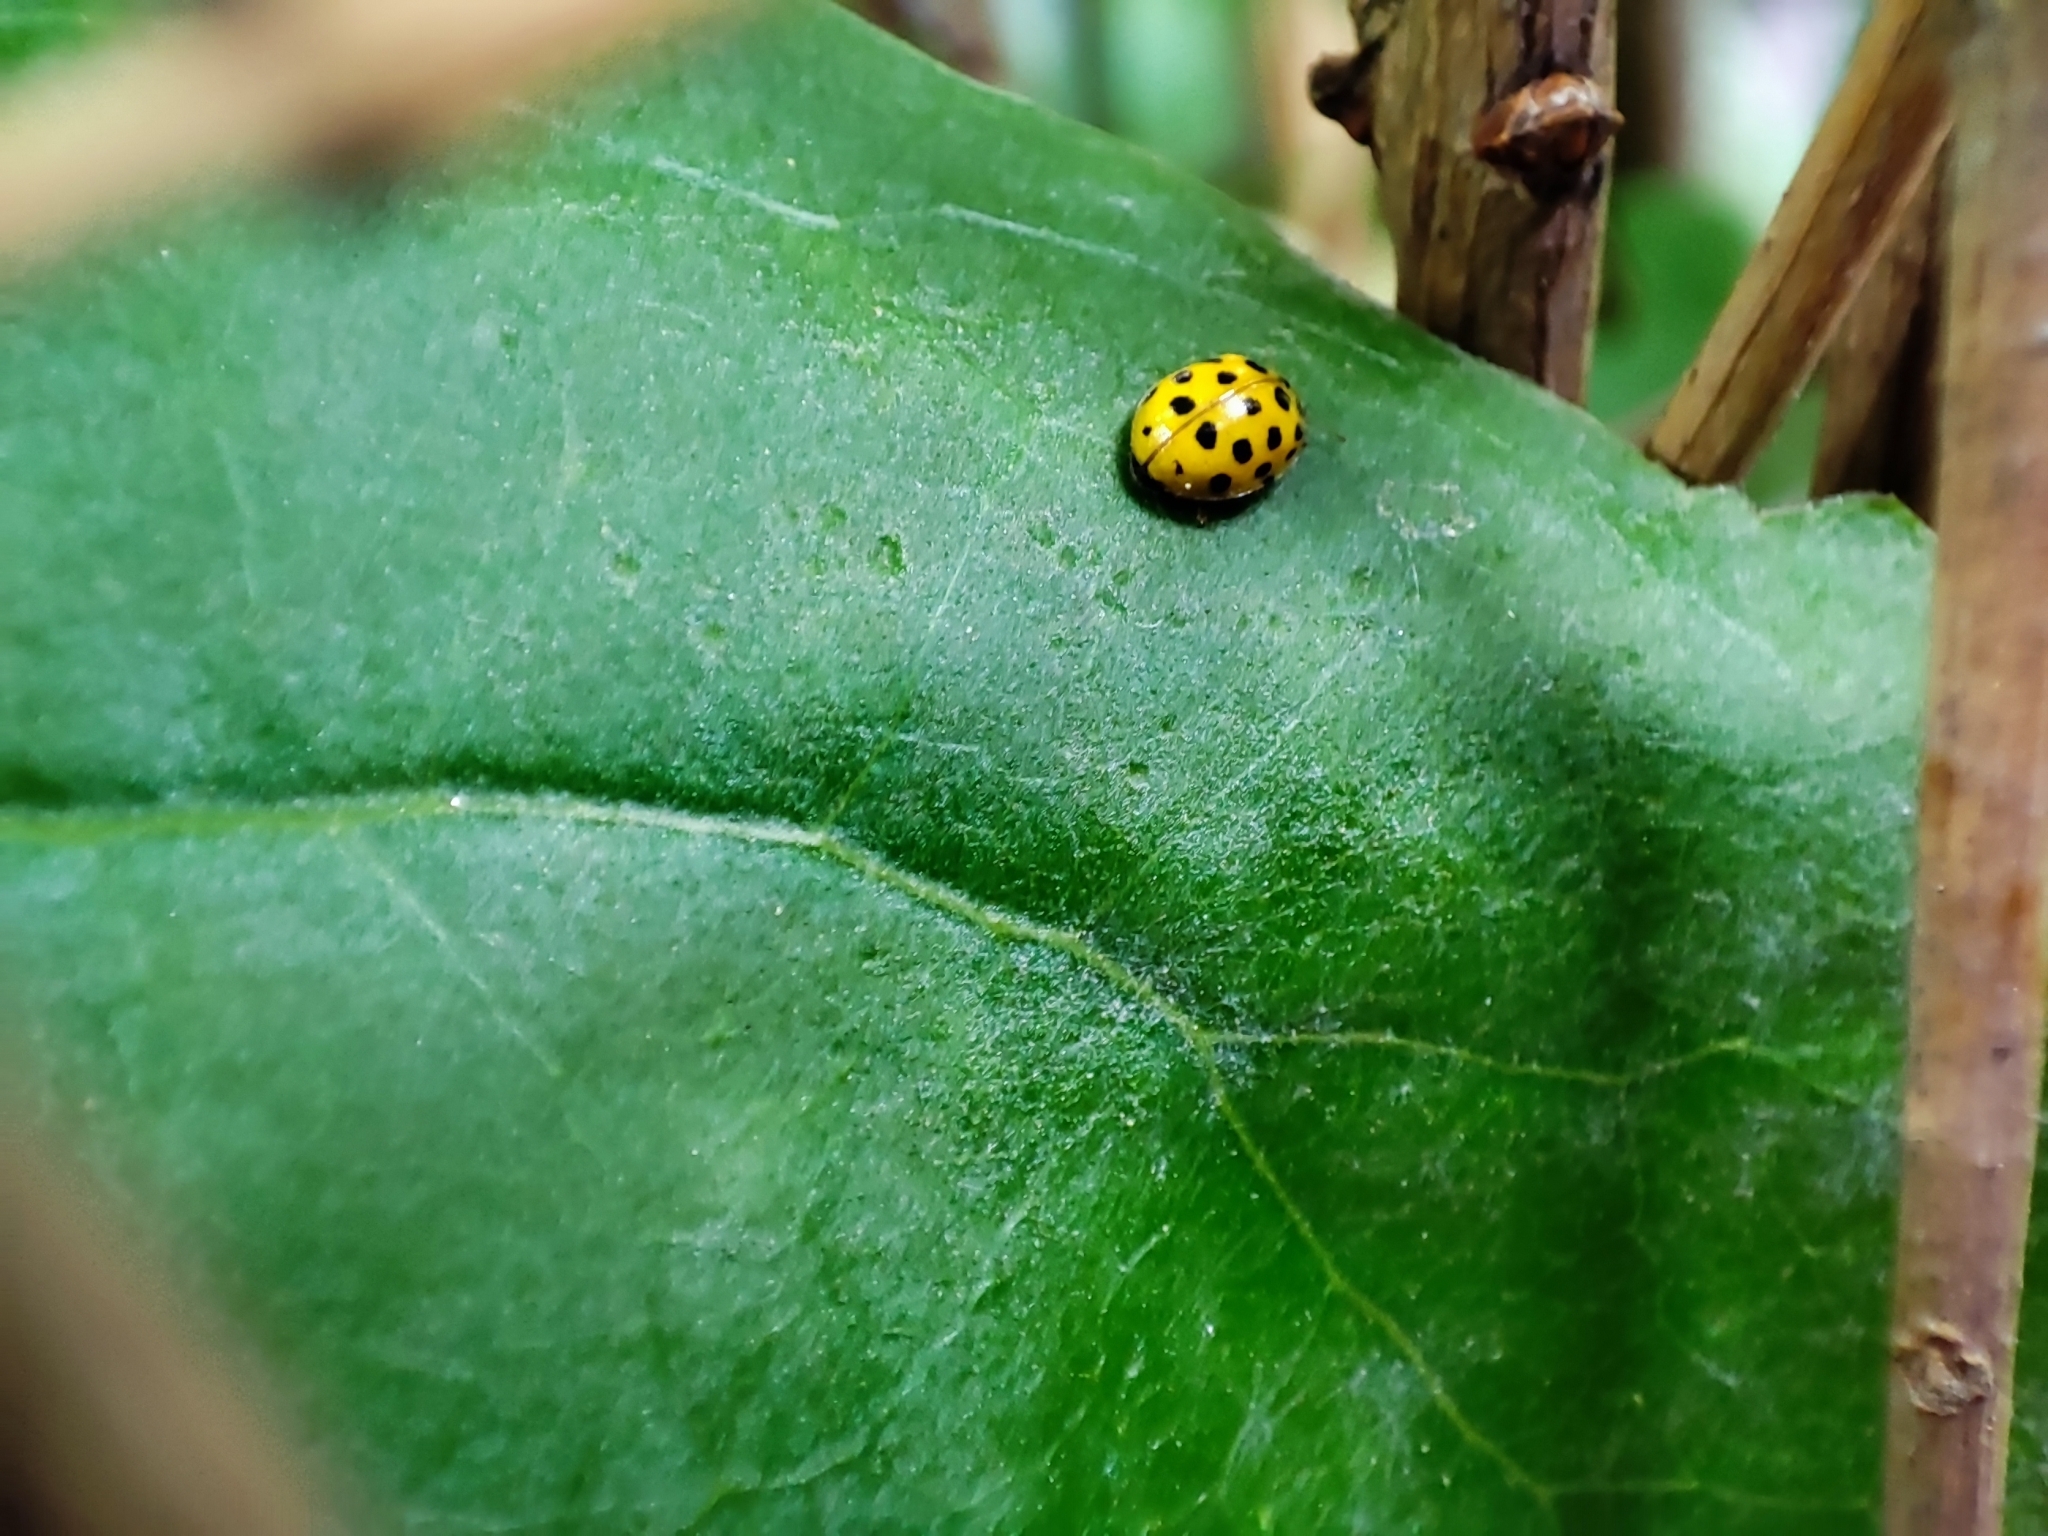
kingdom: Animalia
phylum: Arthropoda
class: Insecta
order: Coleoptera
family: Coccinellidae
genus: Psyllobora
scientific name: Psyllobora vigintiduopunctata
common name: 22-spot ladybird
